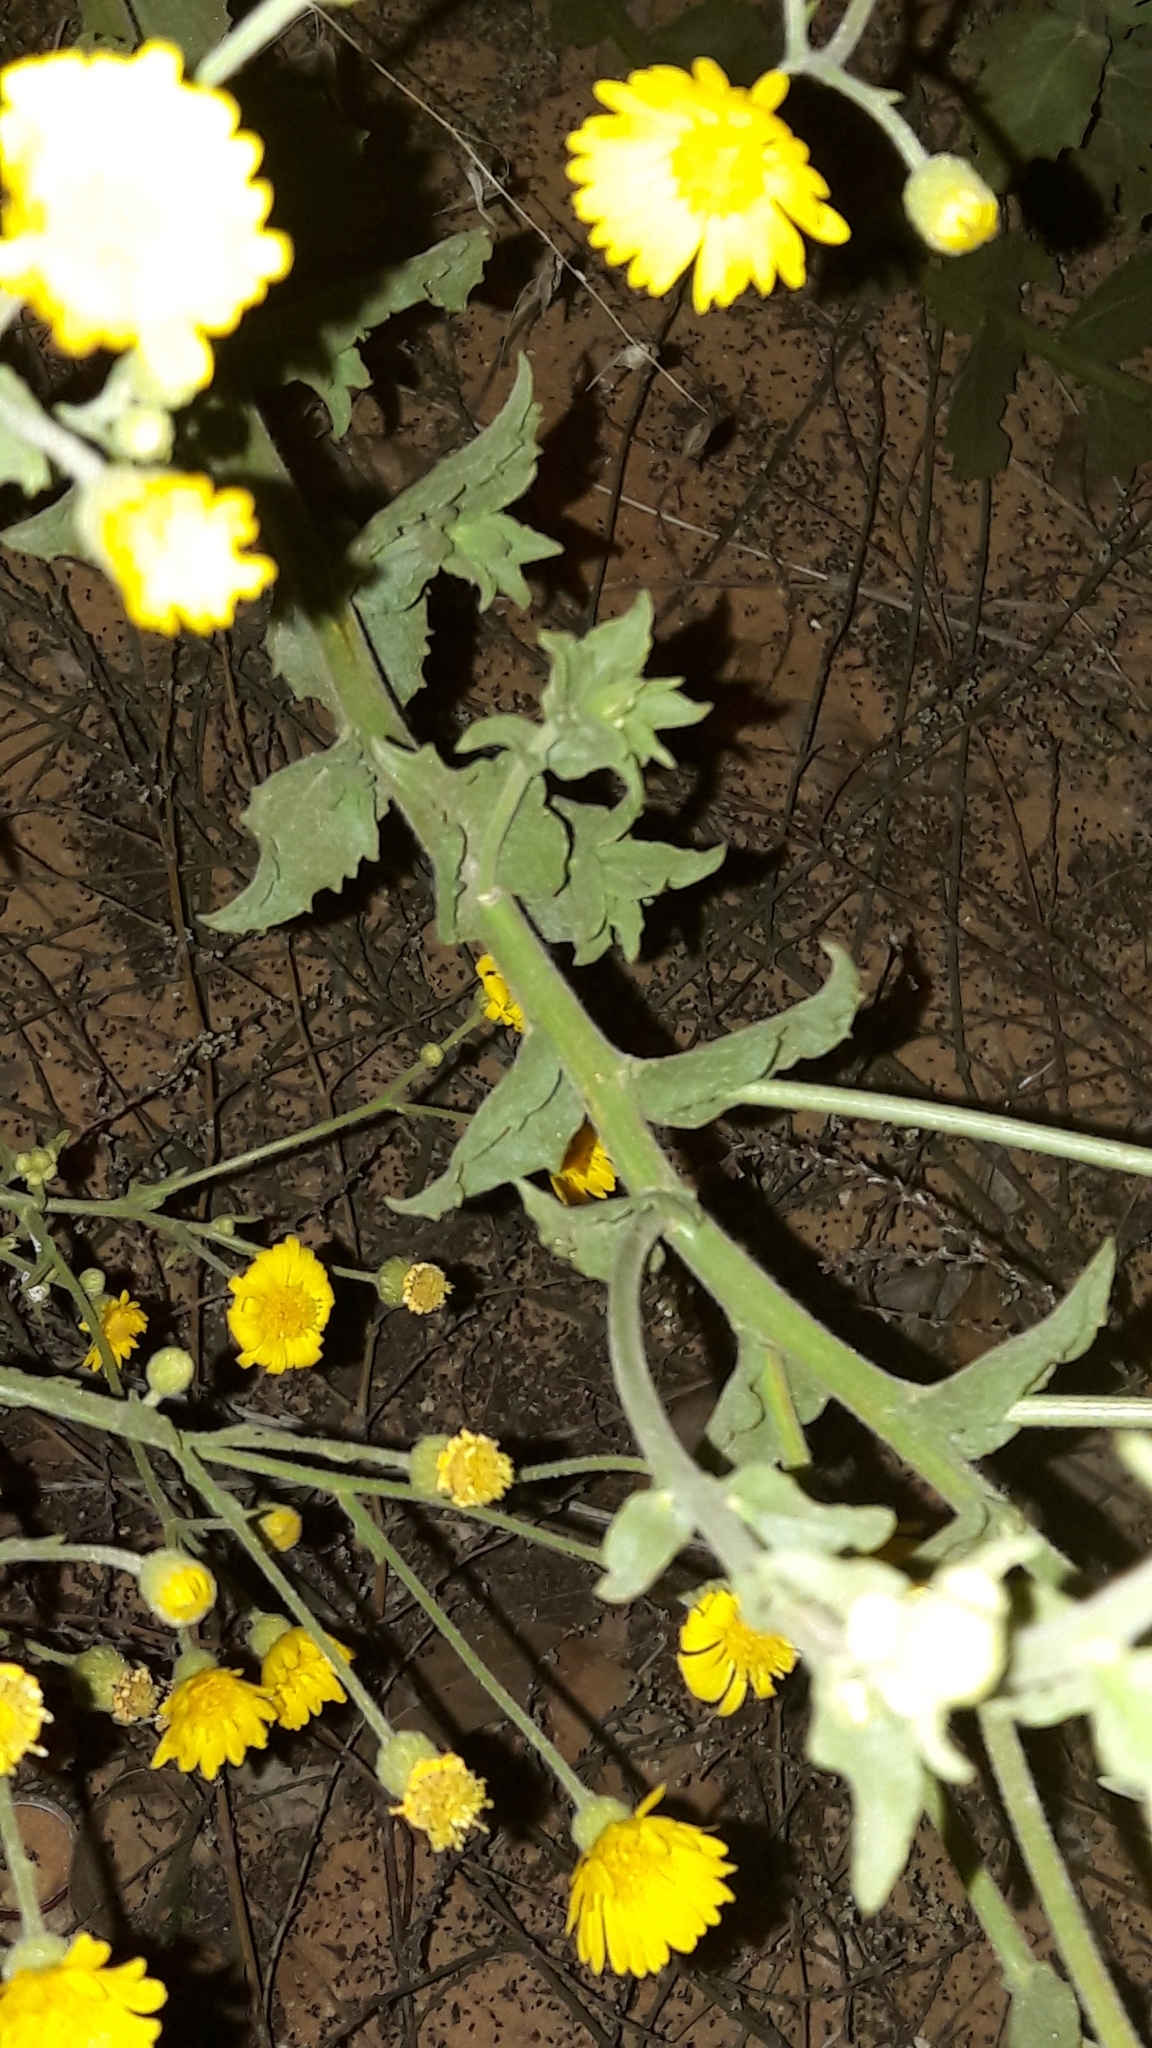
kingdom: Plantae
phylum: Tracheophyta
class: Magnoliopsida
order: Asterales
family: Asteraceae
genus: Heterotheca
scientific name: Heterotheca subaxillaris
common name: Camphorweed
